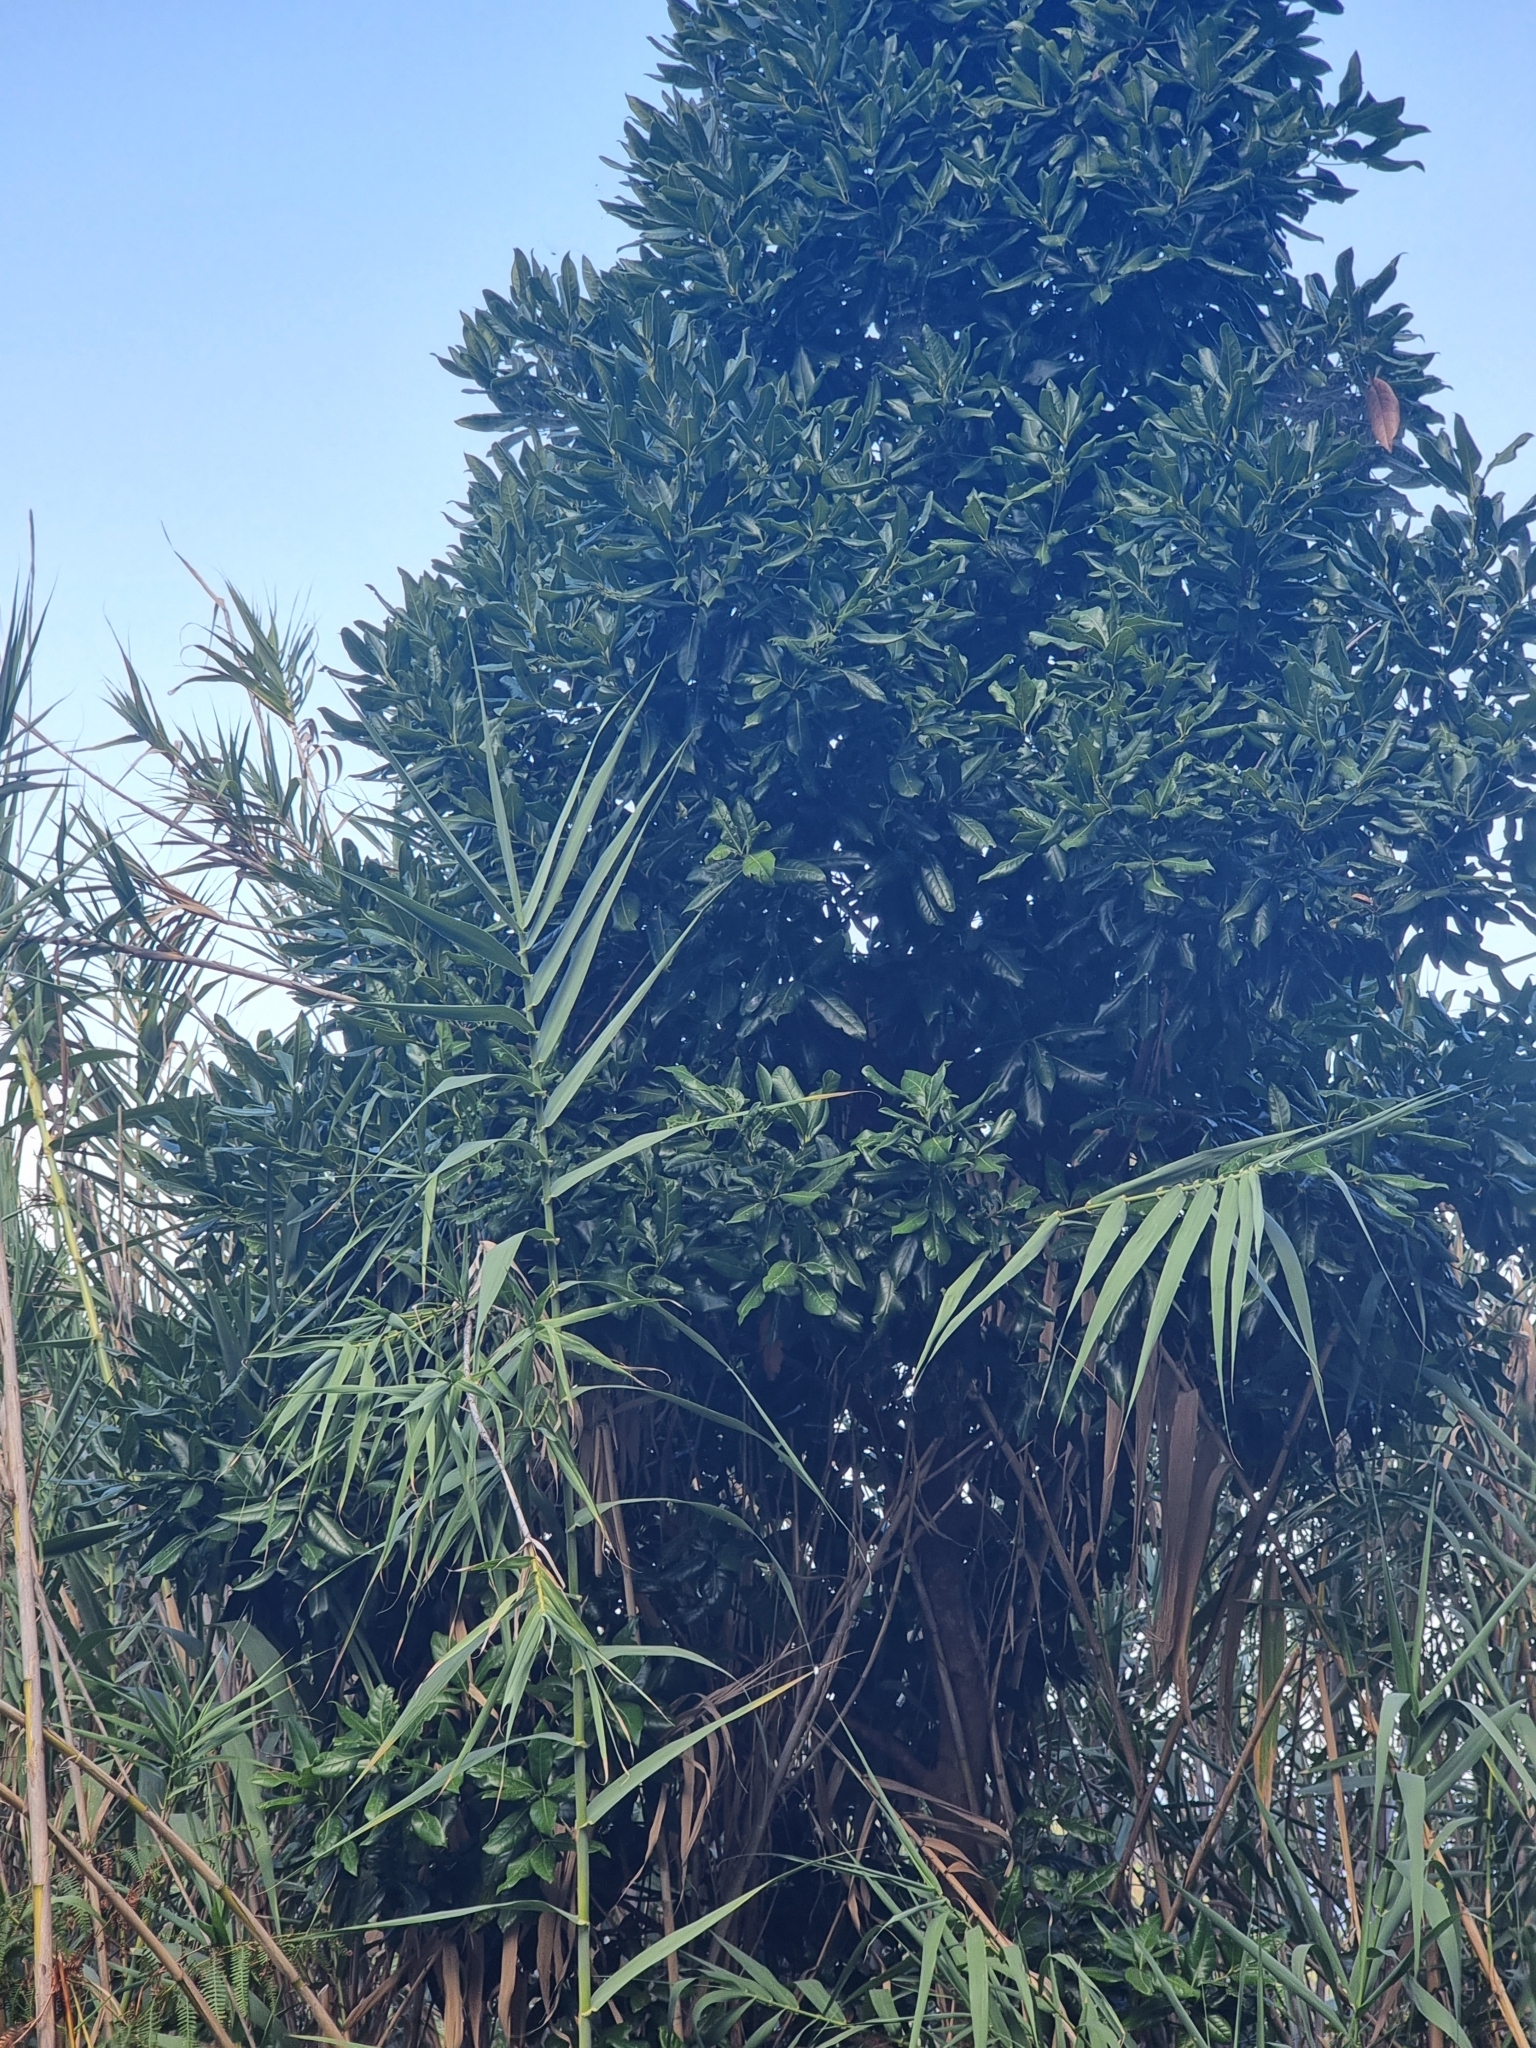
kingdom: Plantae
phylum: Tracheophyta
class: Magnoliopsida
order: Laurales
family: Lauraceae
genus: Apollonias
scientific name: Apollonias barbujana
